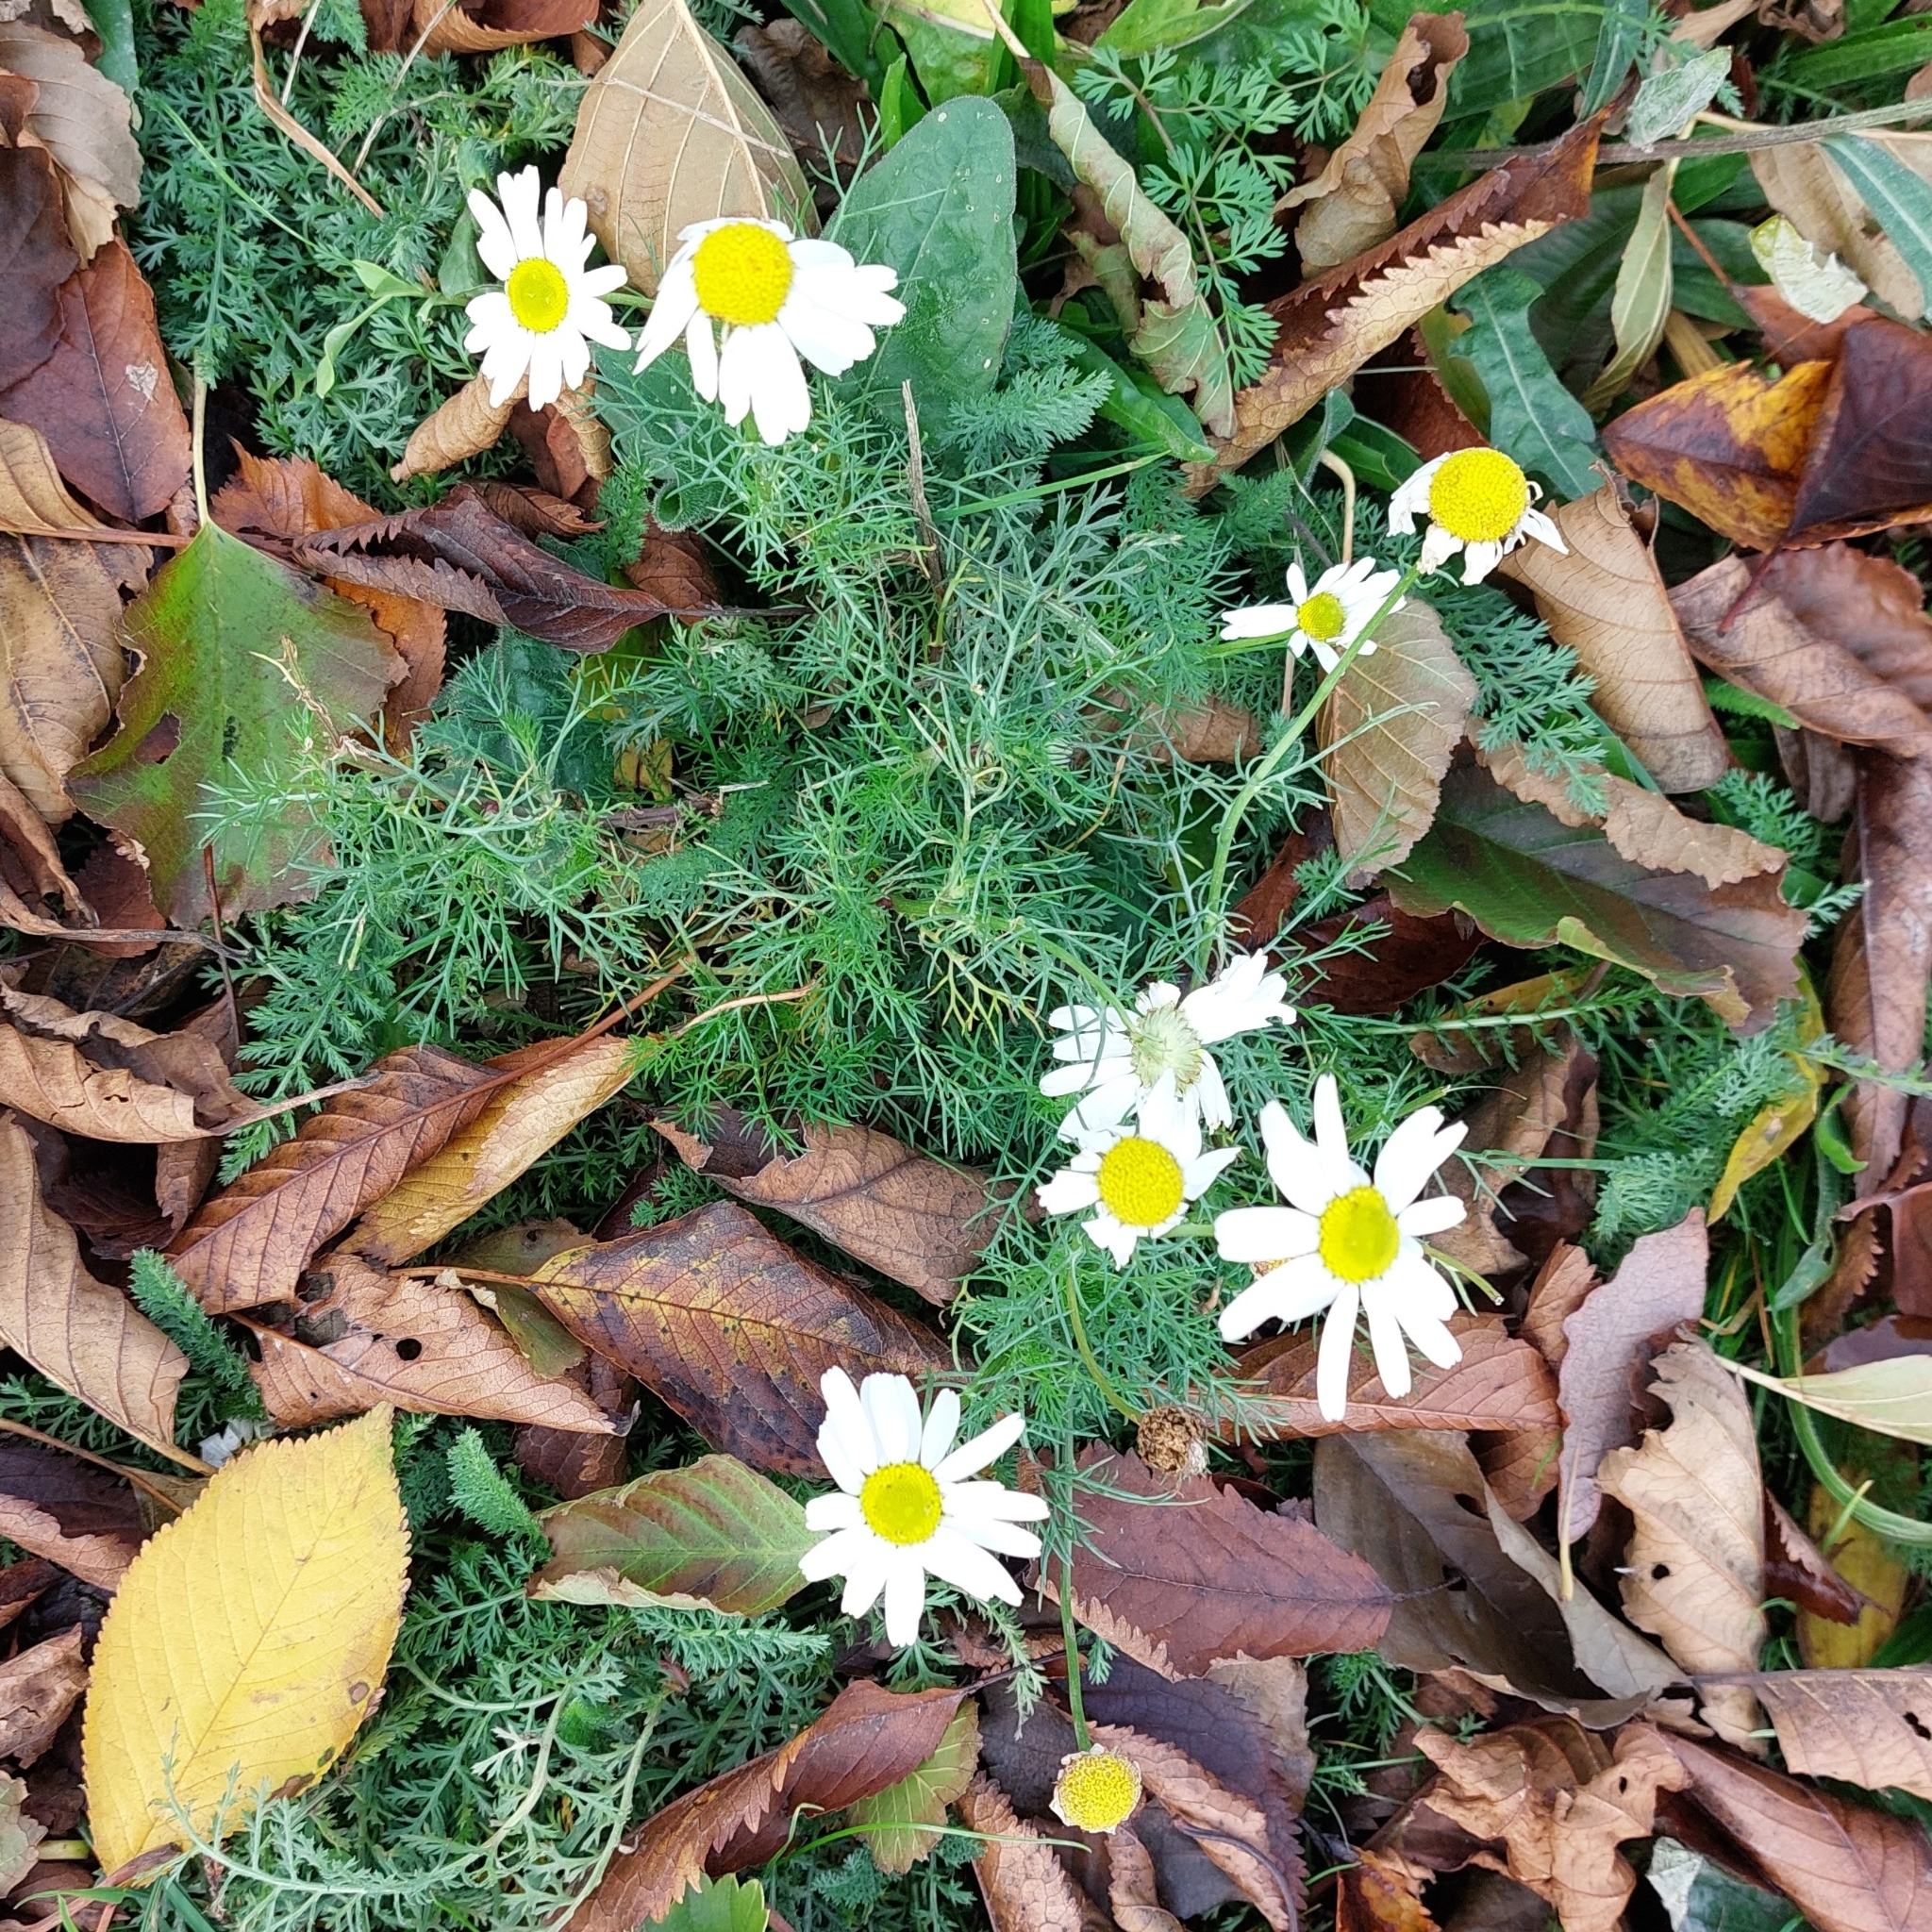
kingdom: Plantae
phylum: Tracheophyta
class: Magnoliopsida
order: Asterales
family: Asteraceae
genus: Tripleurospermum
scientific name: Tripleurospermum inodorum
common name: Scentless mayweed
